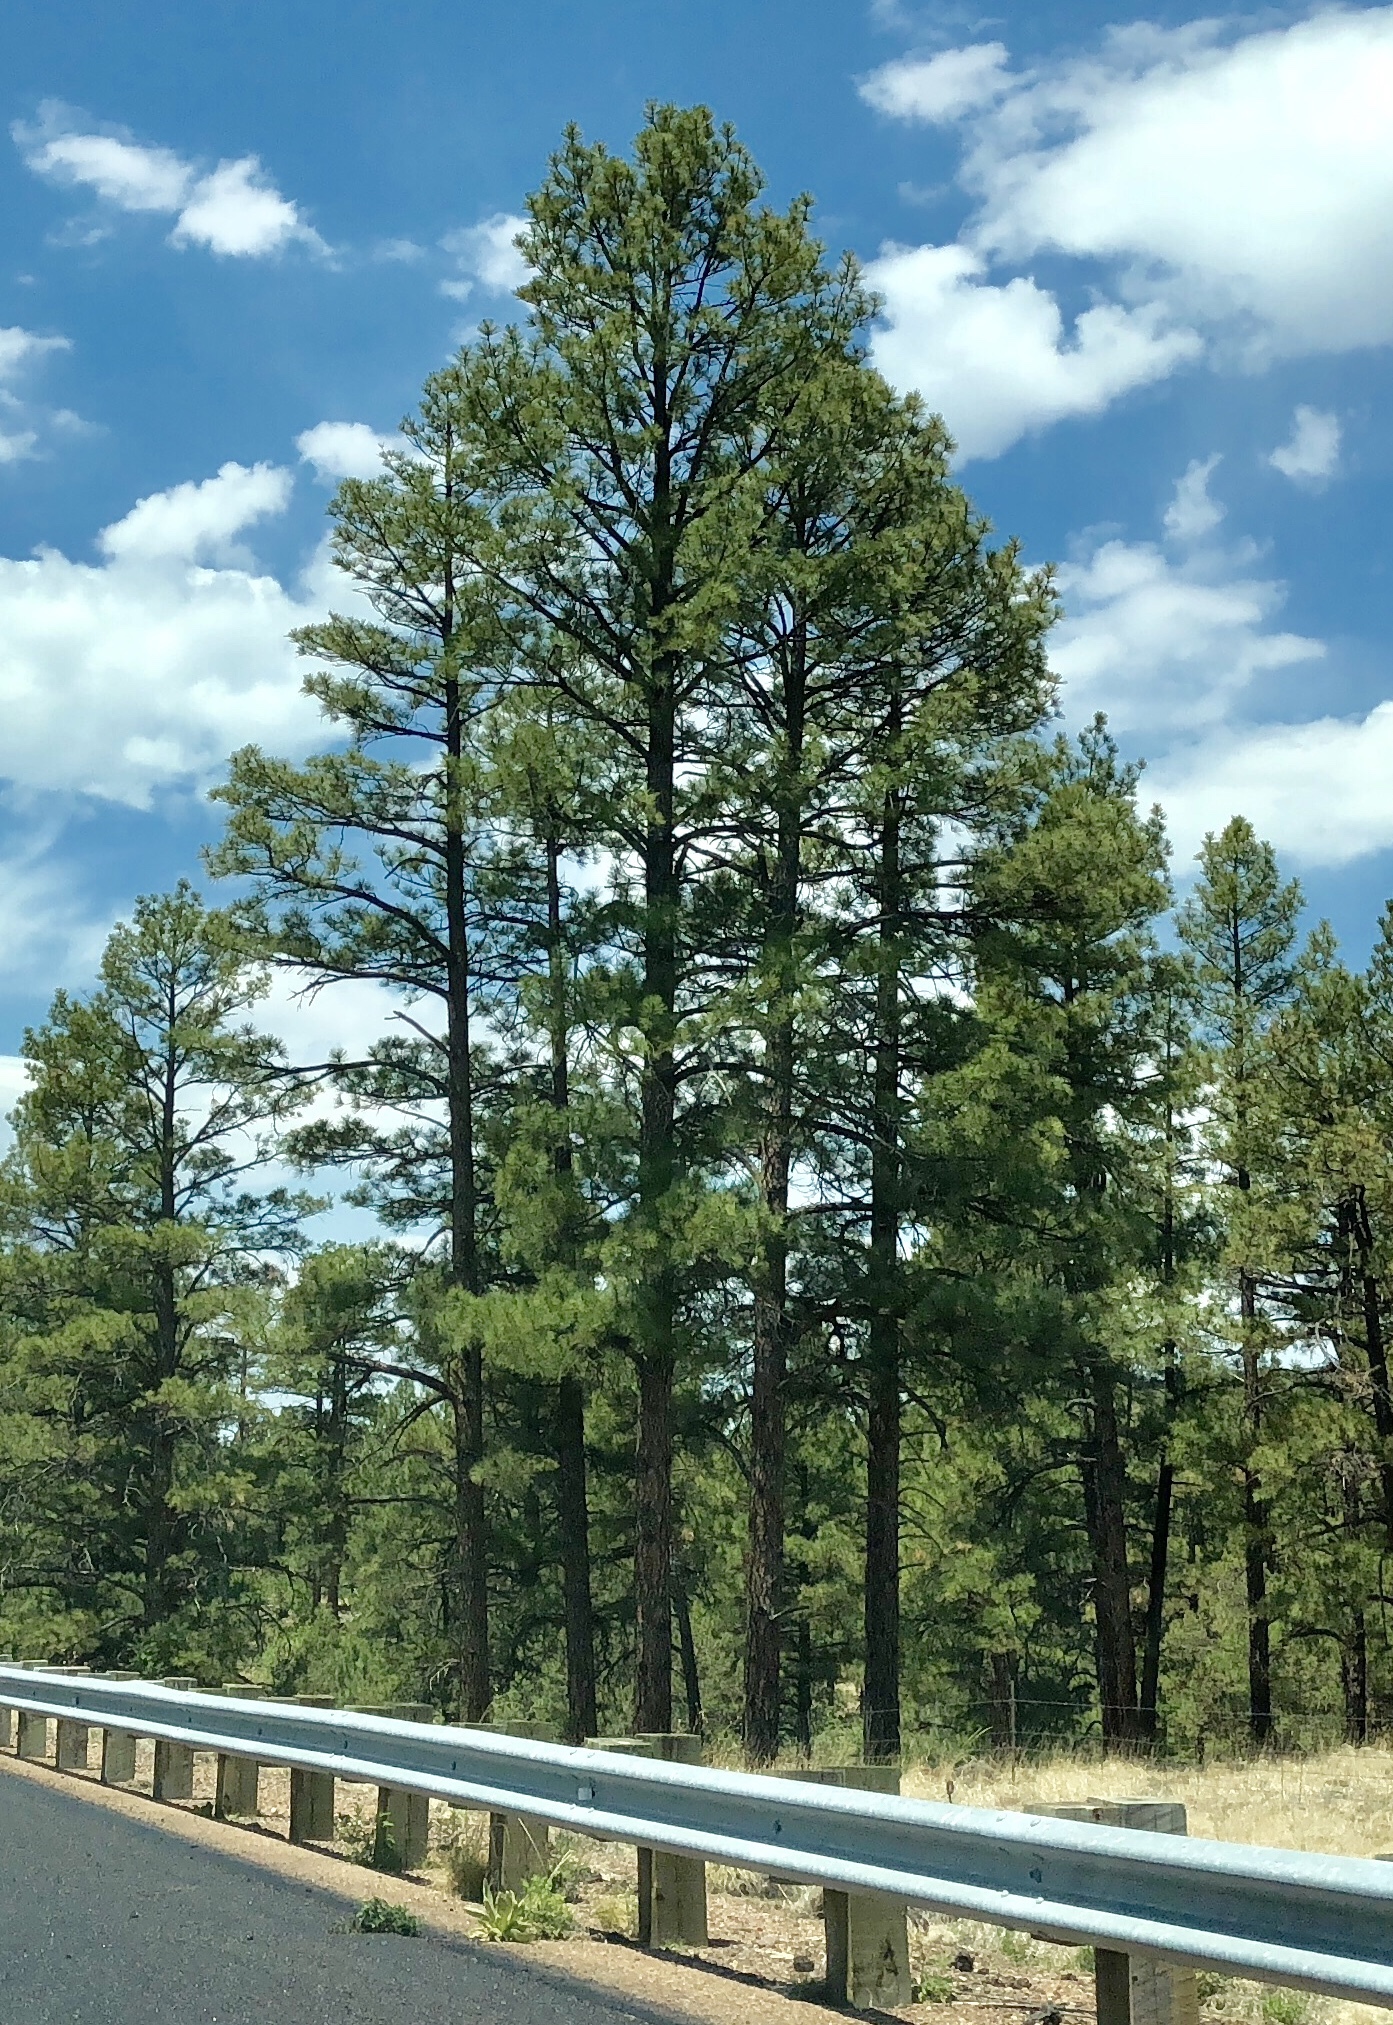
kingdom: Plantae
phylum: Tracheophyta
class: Pinopsida
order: Pinales
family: Pinaceae
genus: Pinus
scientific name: Pinus ponderosa
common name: Western yellow-pine
